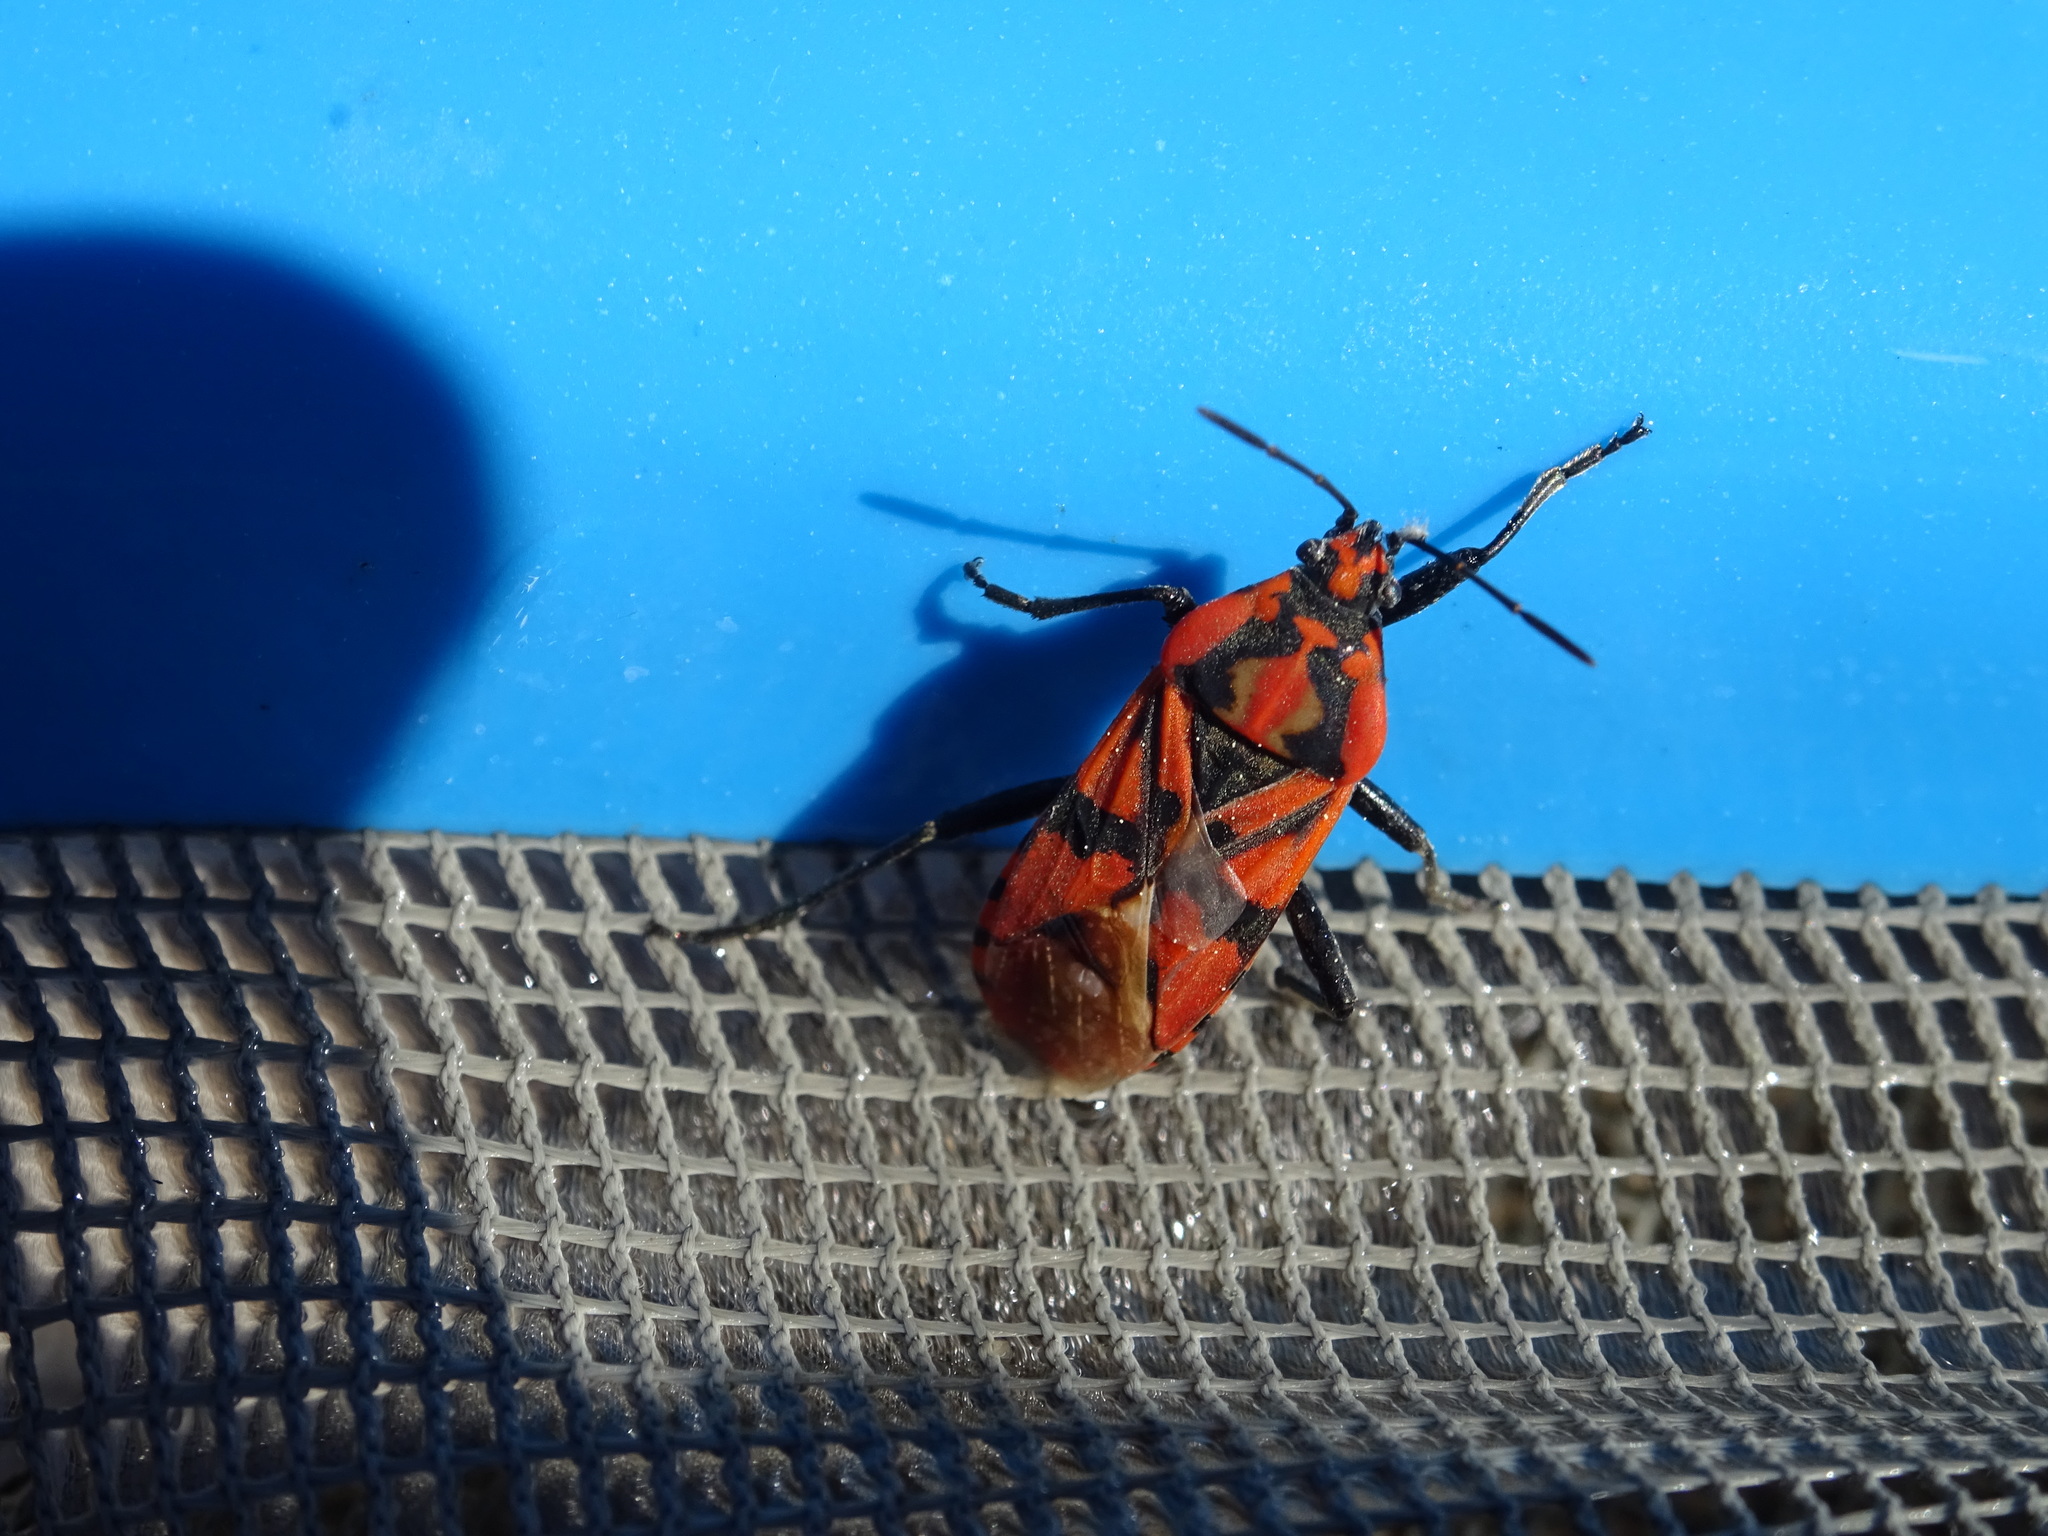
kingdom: Animalia
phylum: Arthropoda
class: Insecta
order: Hemiptera
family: Lygaeidae
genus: Spilostethus
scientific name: Spilostethus pandurus
